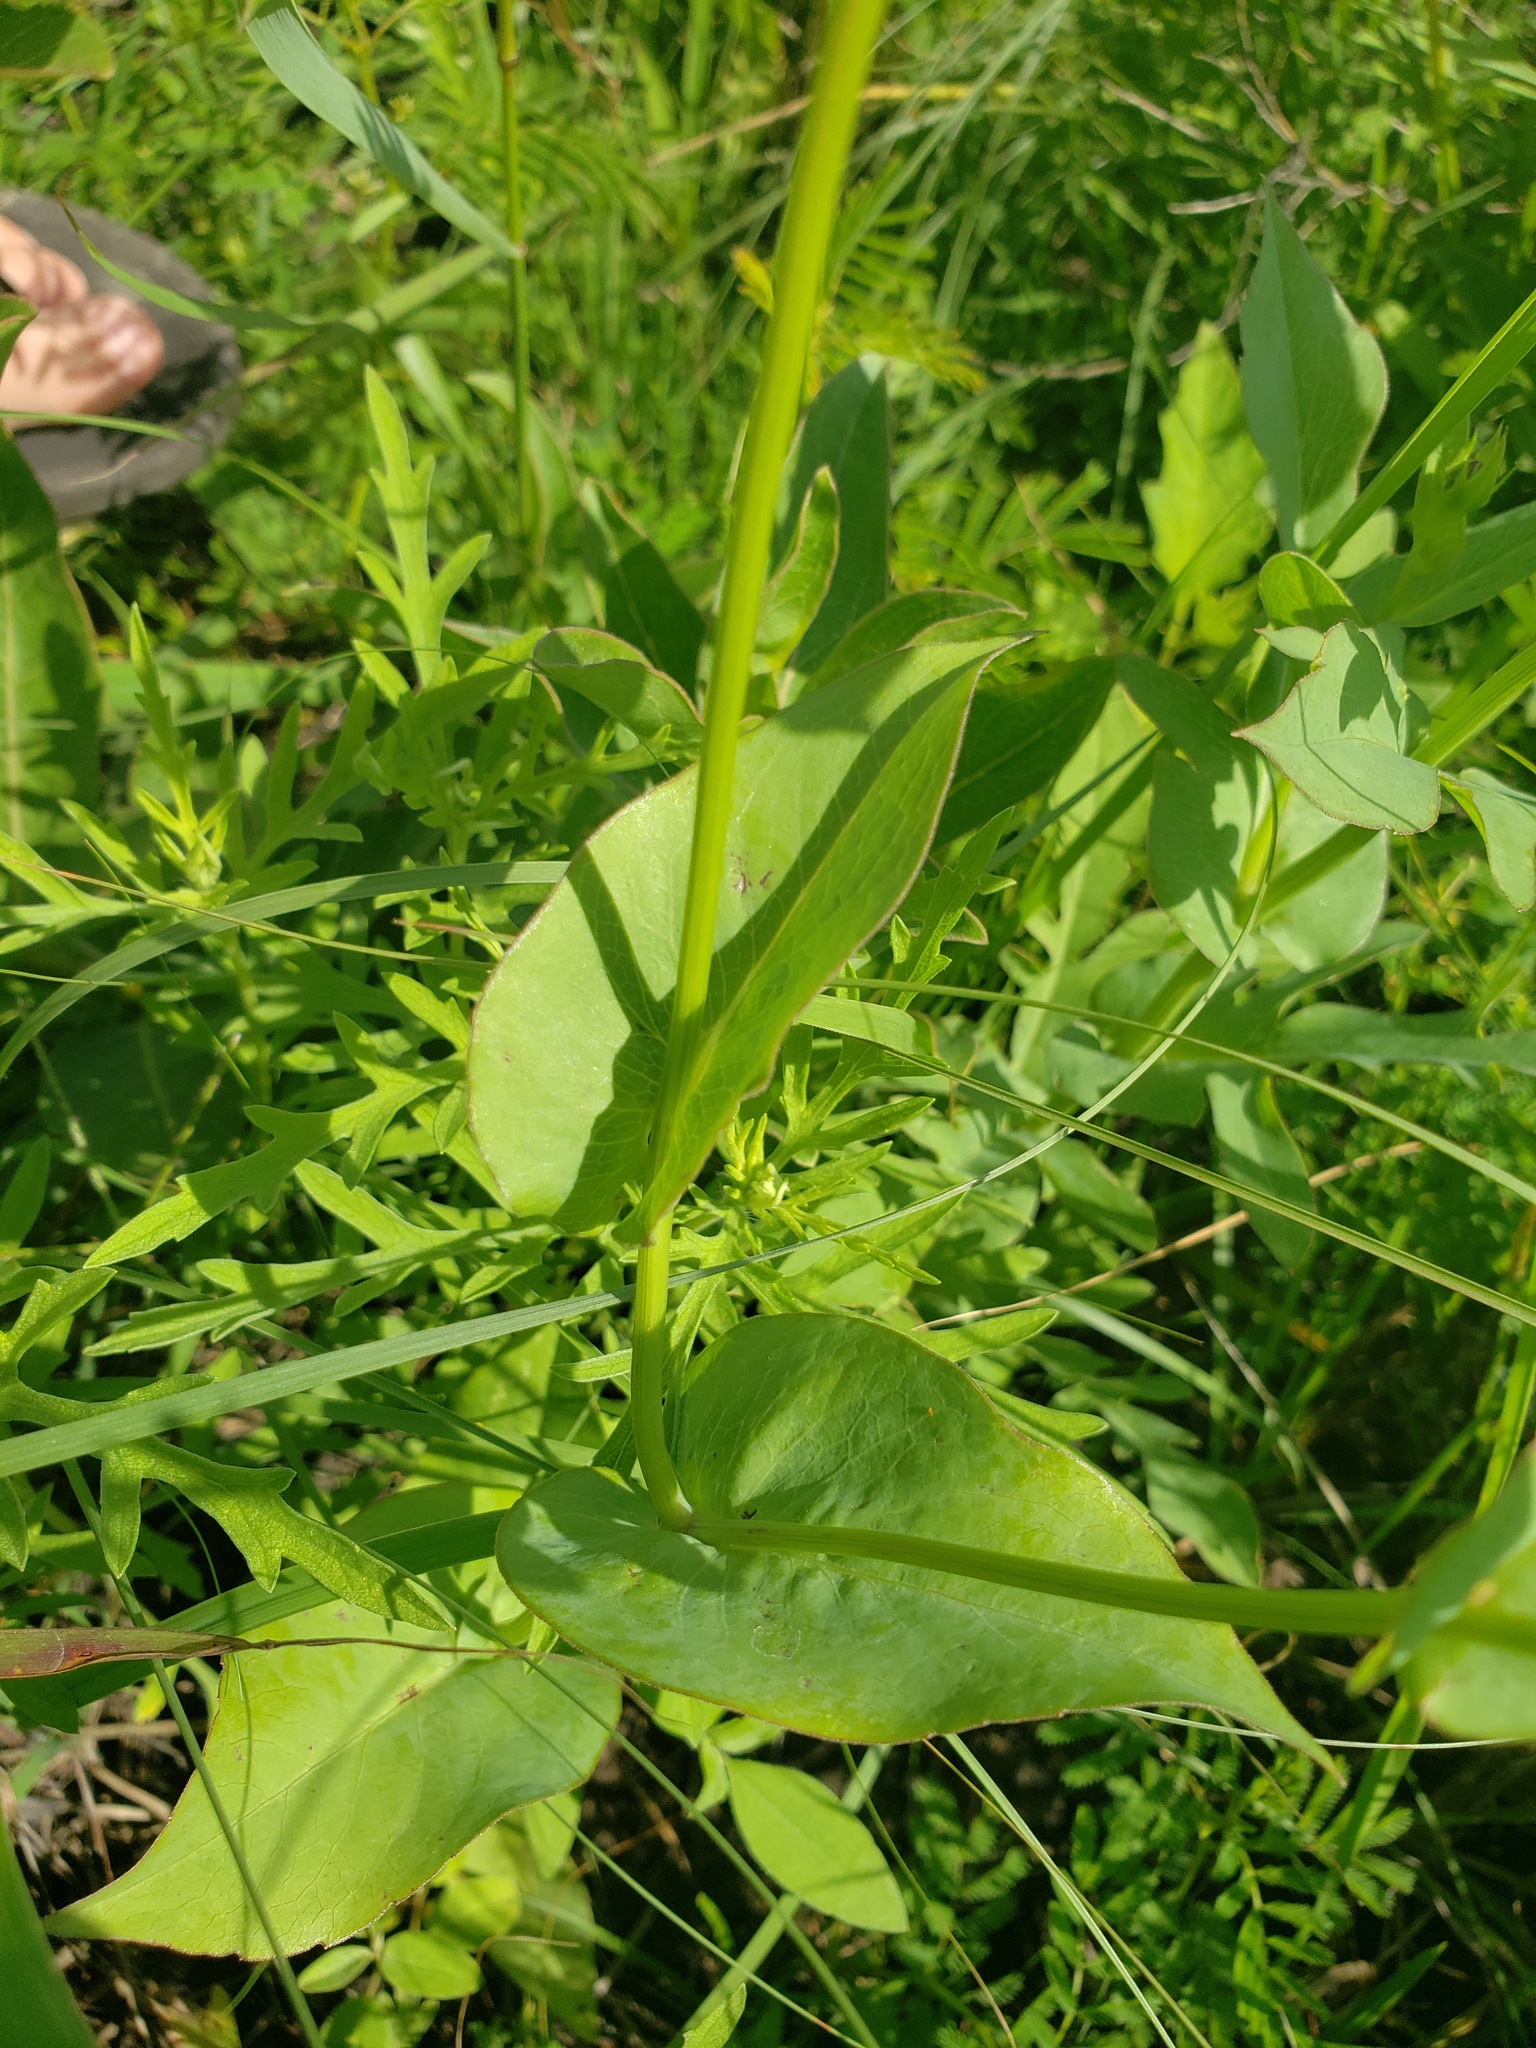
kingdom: Plantae
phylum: Tracheophyta
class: Magnoliopsida
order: Asterales
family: Asteraceae
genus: Rudbeckia
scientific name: Rudbeckia amplexicaulis
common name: Clasping-leaf coneflower
